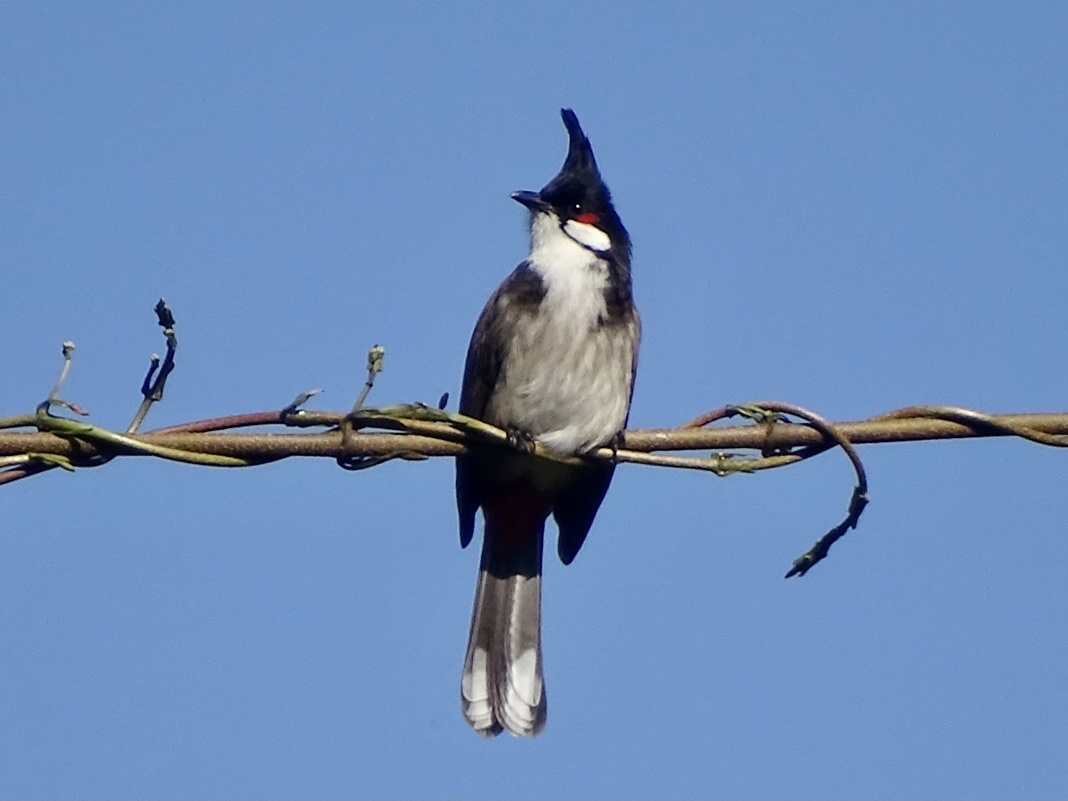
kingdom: Animalia
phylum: Chordata
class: Aves
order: Passeriformes
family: Pycnonotidae
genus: Pycnonotus
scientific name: Pycnonotus jocosus
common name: Red-whiskered bulbul
